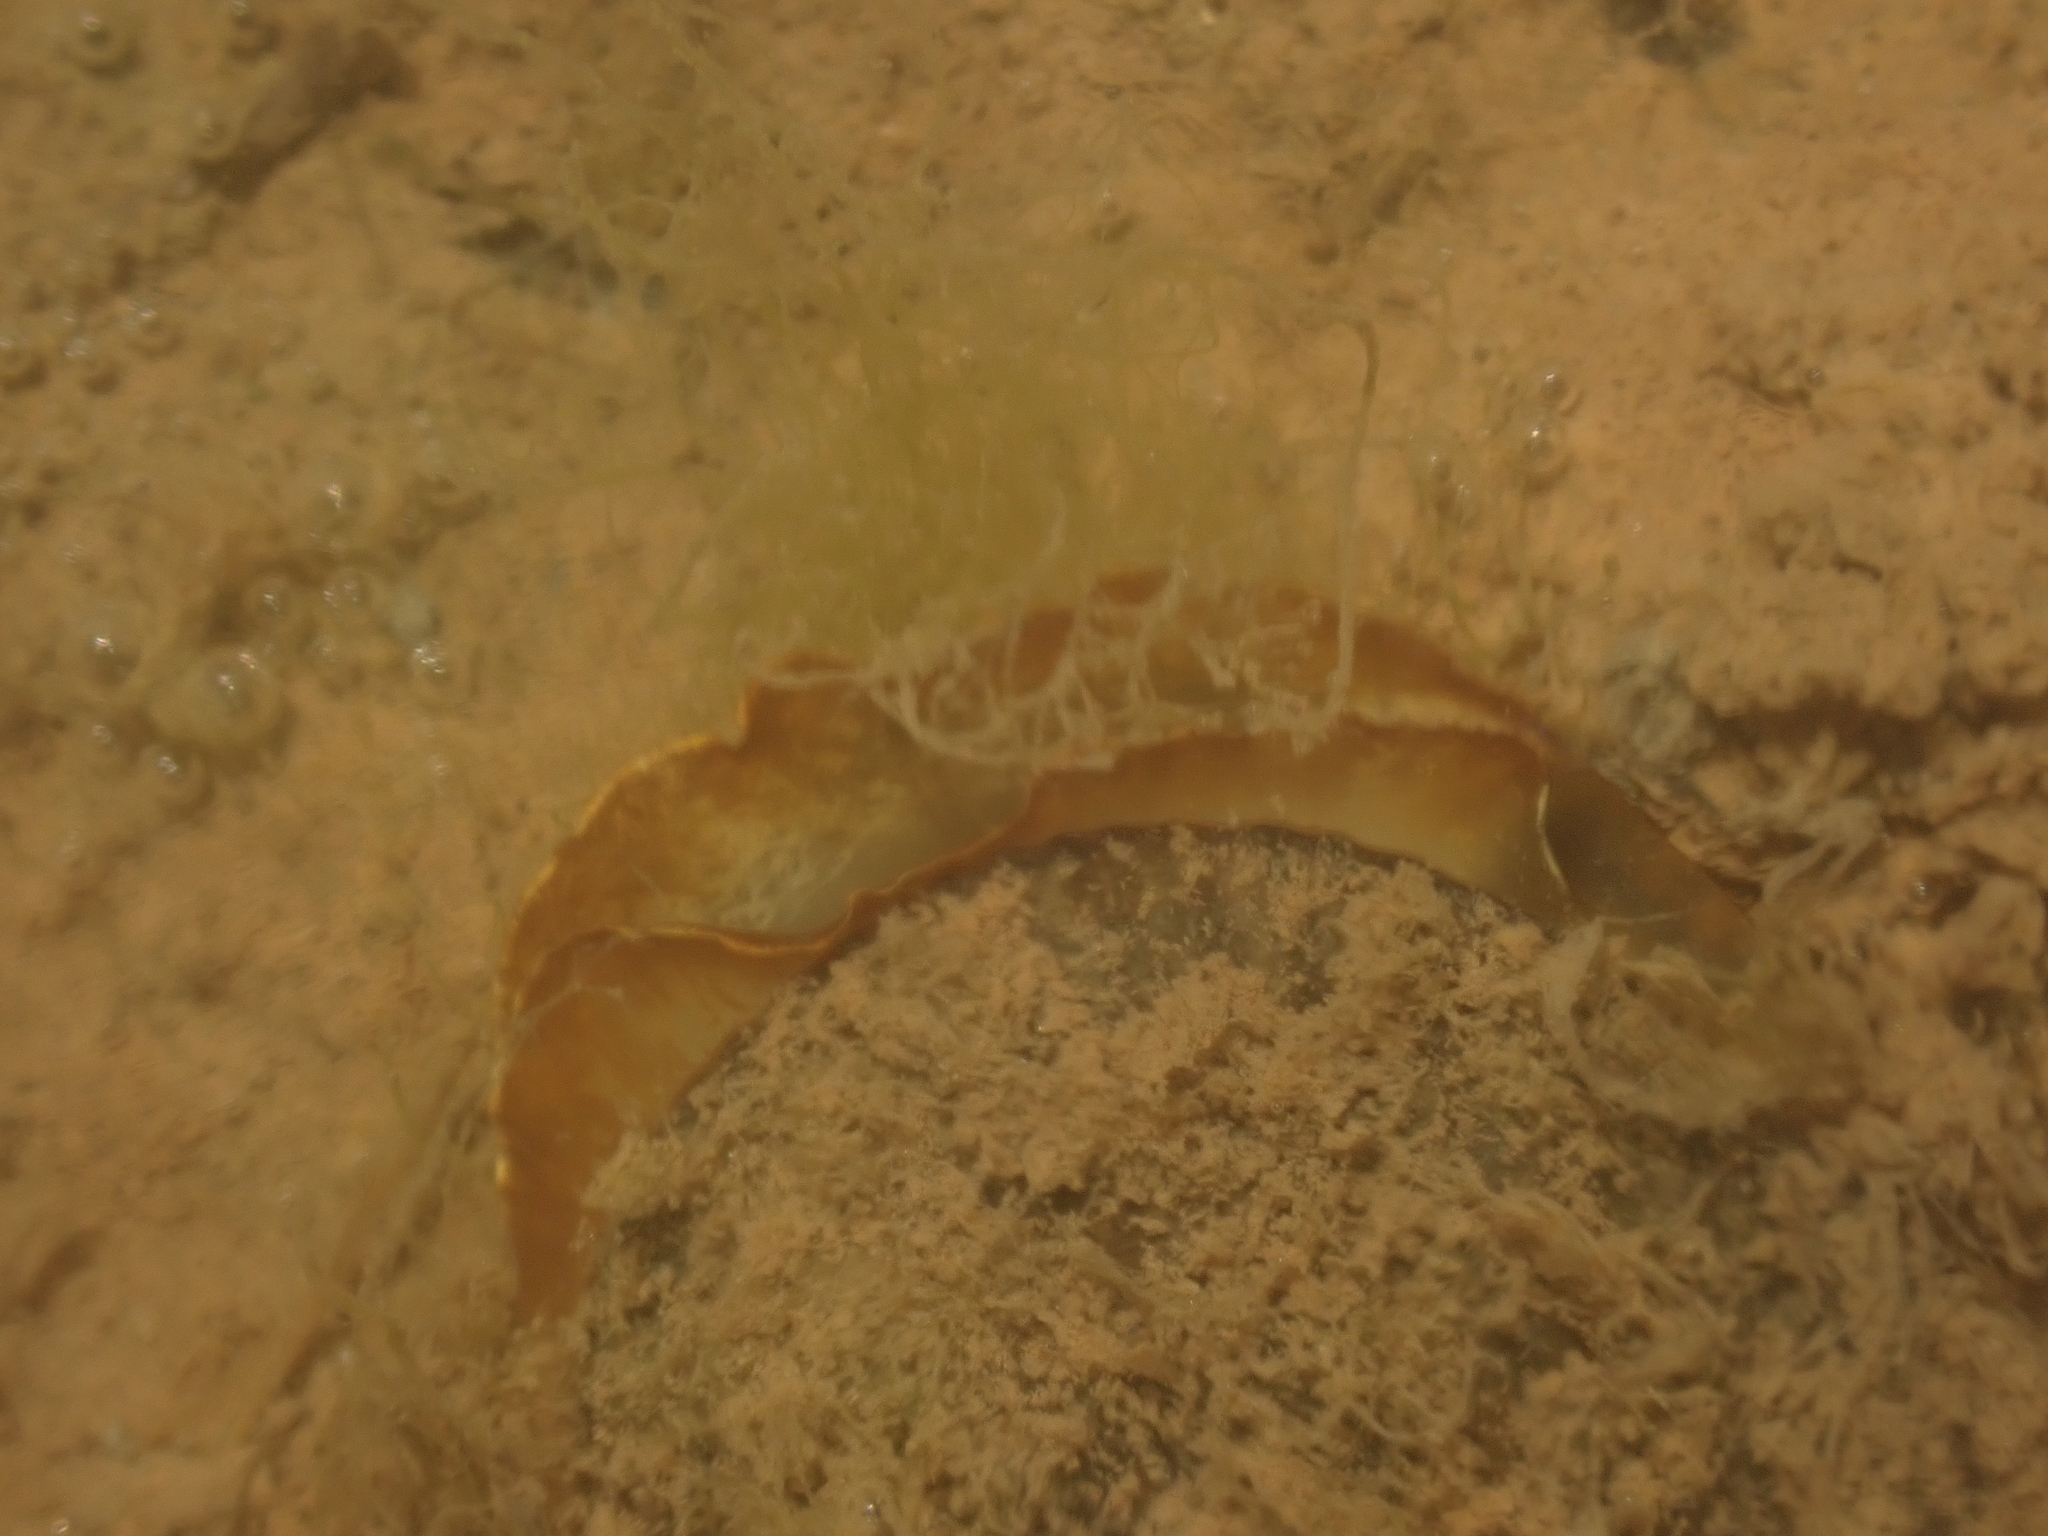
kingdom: Animalia
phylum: Mollusca
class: Bivalvia
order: Mytilida
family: Mytilidae
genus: Geukensia
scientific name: Geukensia demissa
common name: Ribbed mussel
